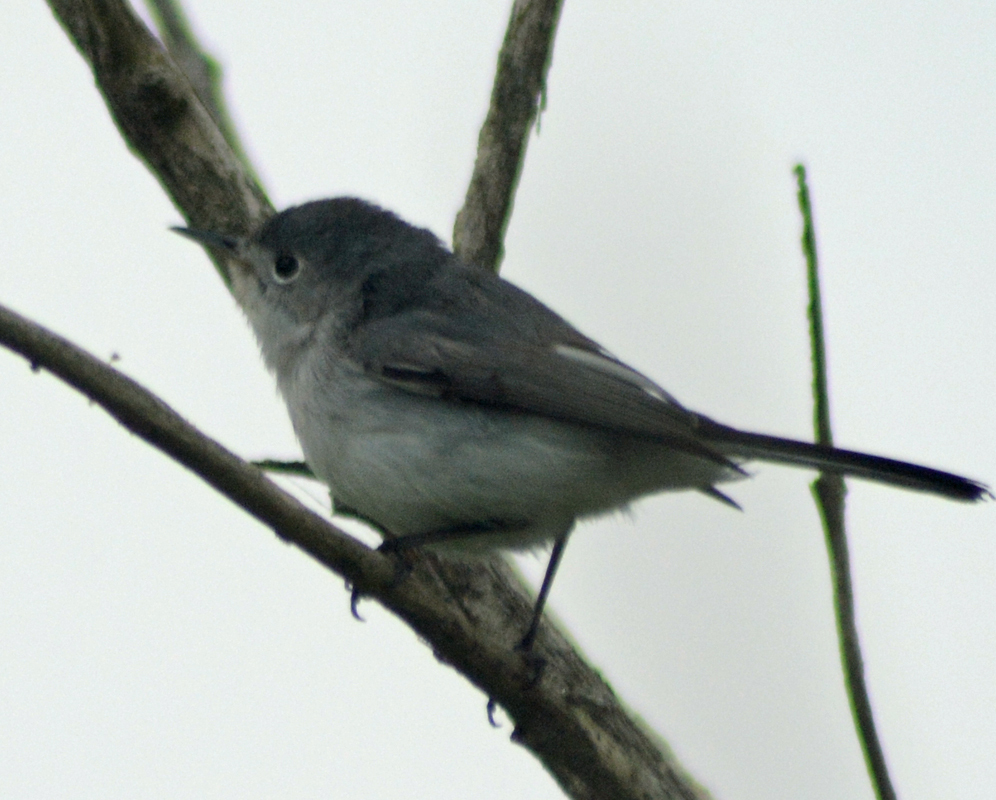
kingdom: Animalia
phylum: Chordata
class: Aves
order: Passeriformes
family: Polioptilidae
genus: Polioptila
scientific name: Polioptila caerulea
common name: Blue-gray gnatcatcher
